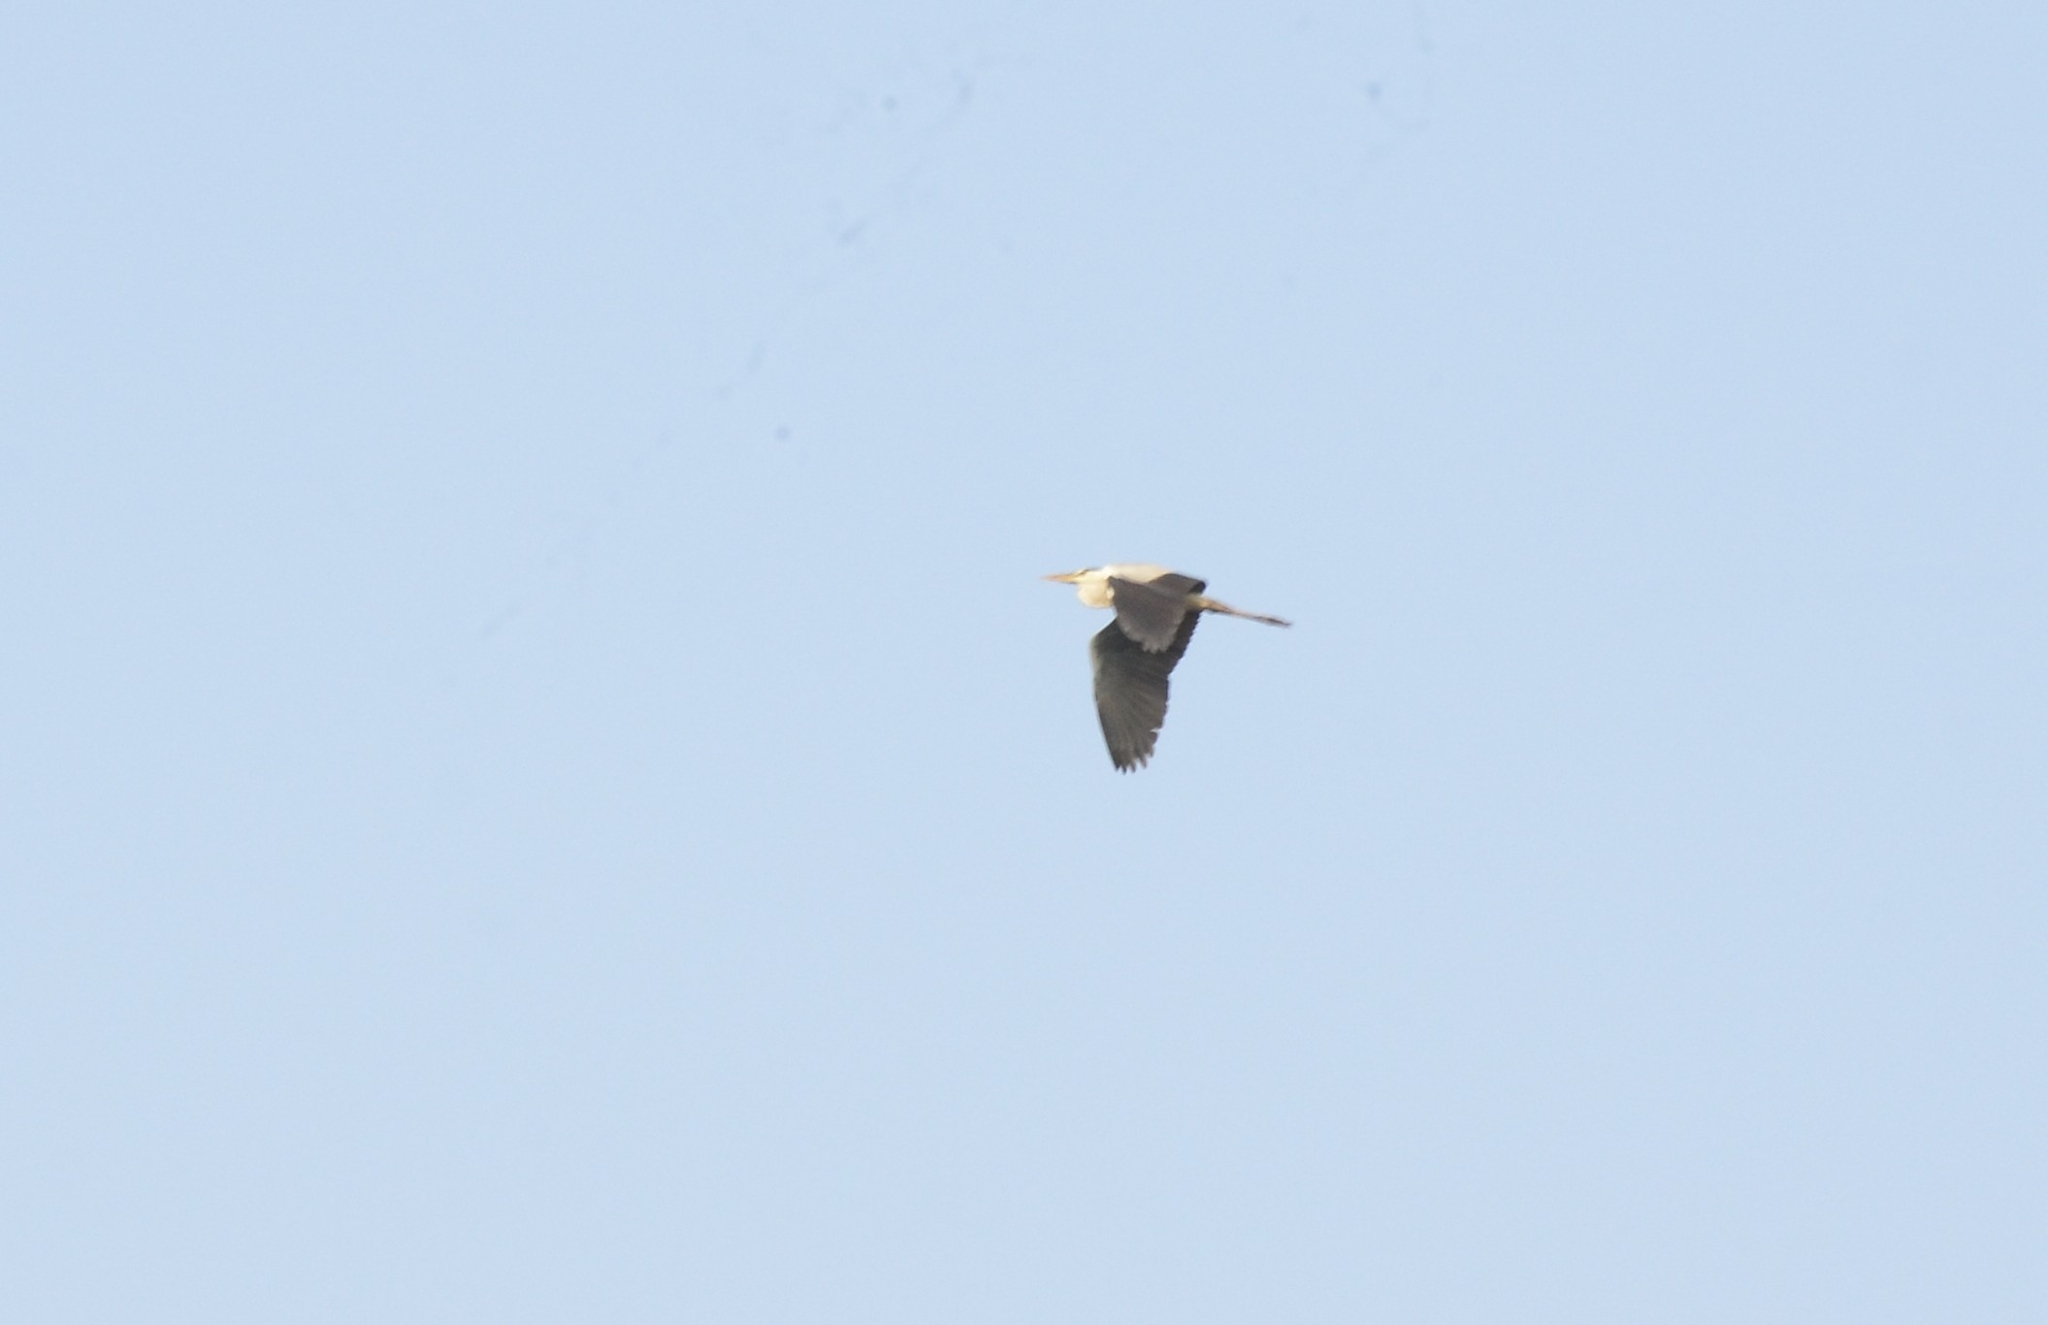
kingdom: Animalia
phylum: Chordata
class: Aves
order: Pelecaniformes
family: Ardeidae
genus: Ardea
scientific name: Ardea cinerea
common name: Grey heron
